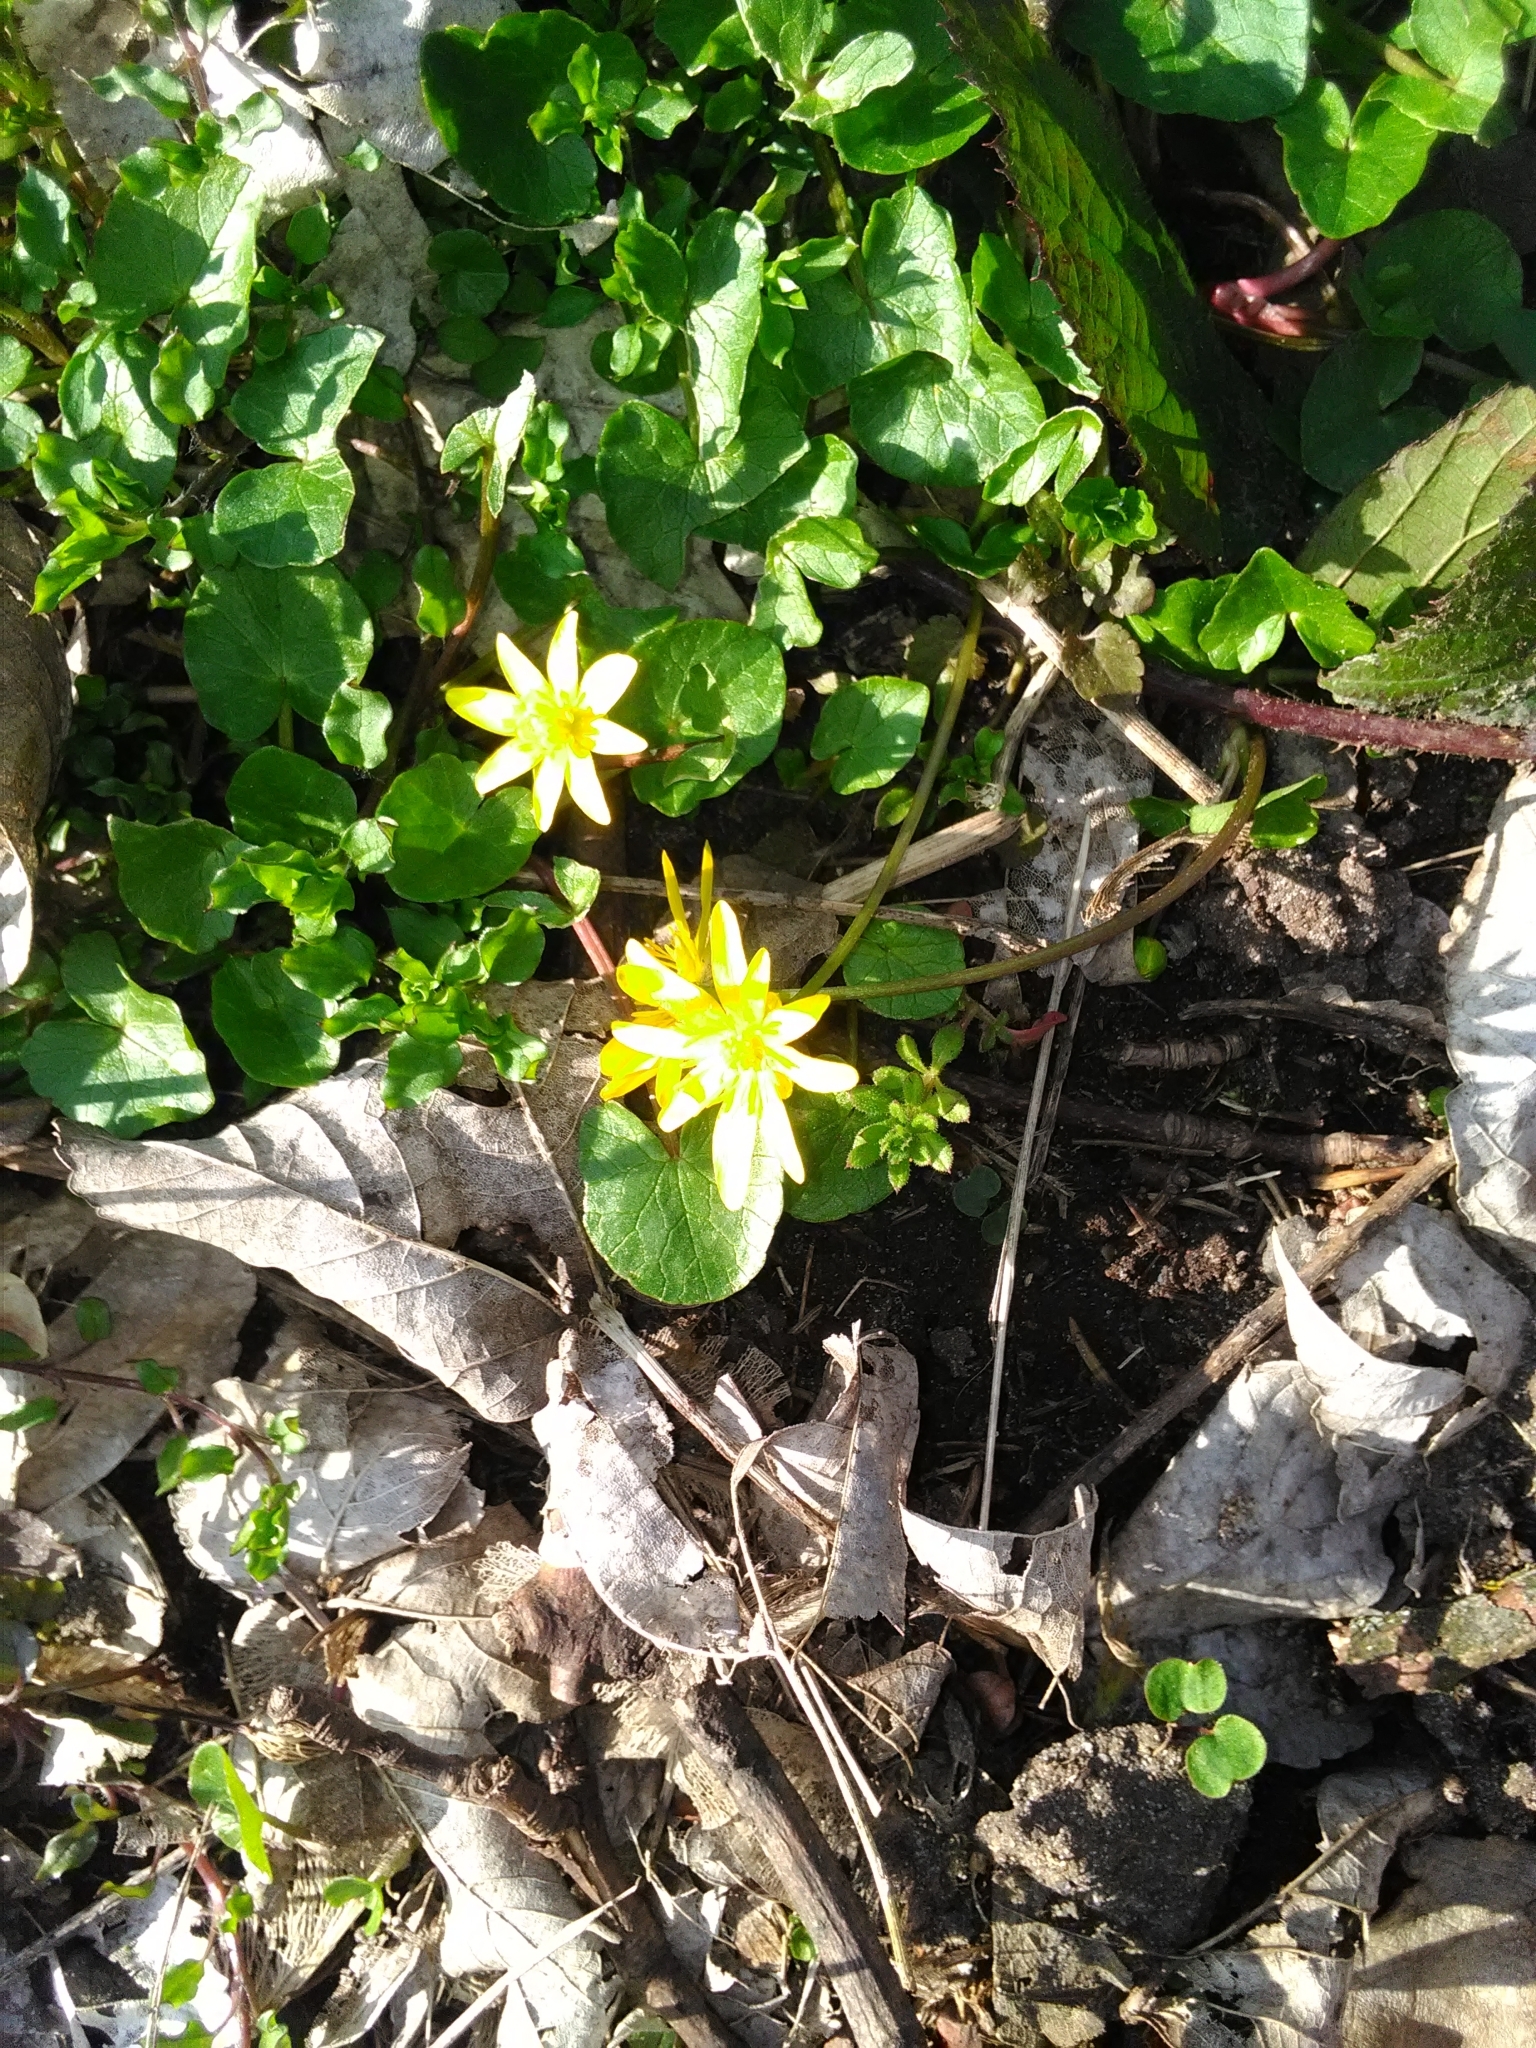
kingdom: Plantae
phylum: Tracheophyta
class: Magnoliopsida
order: Ranunculales
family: Ranunculaceae
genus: Ficaria
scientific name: Ficaria verna
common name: Lesser celandine
